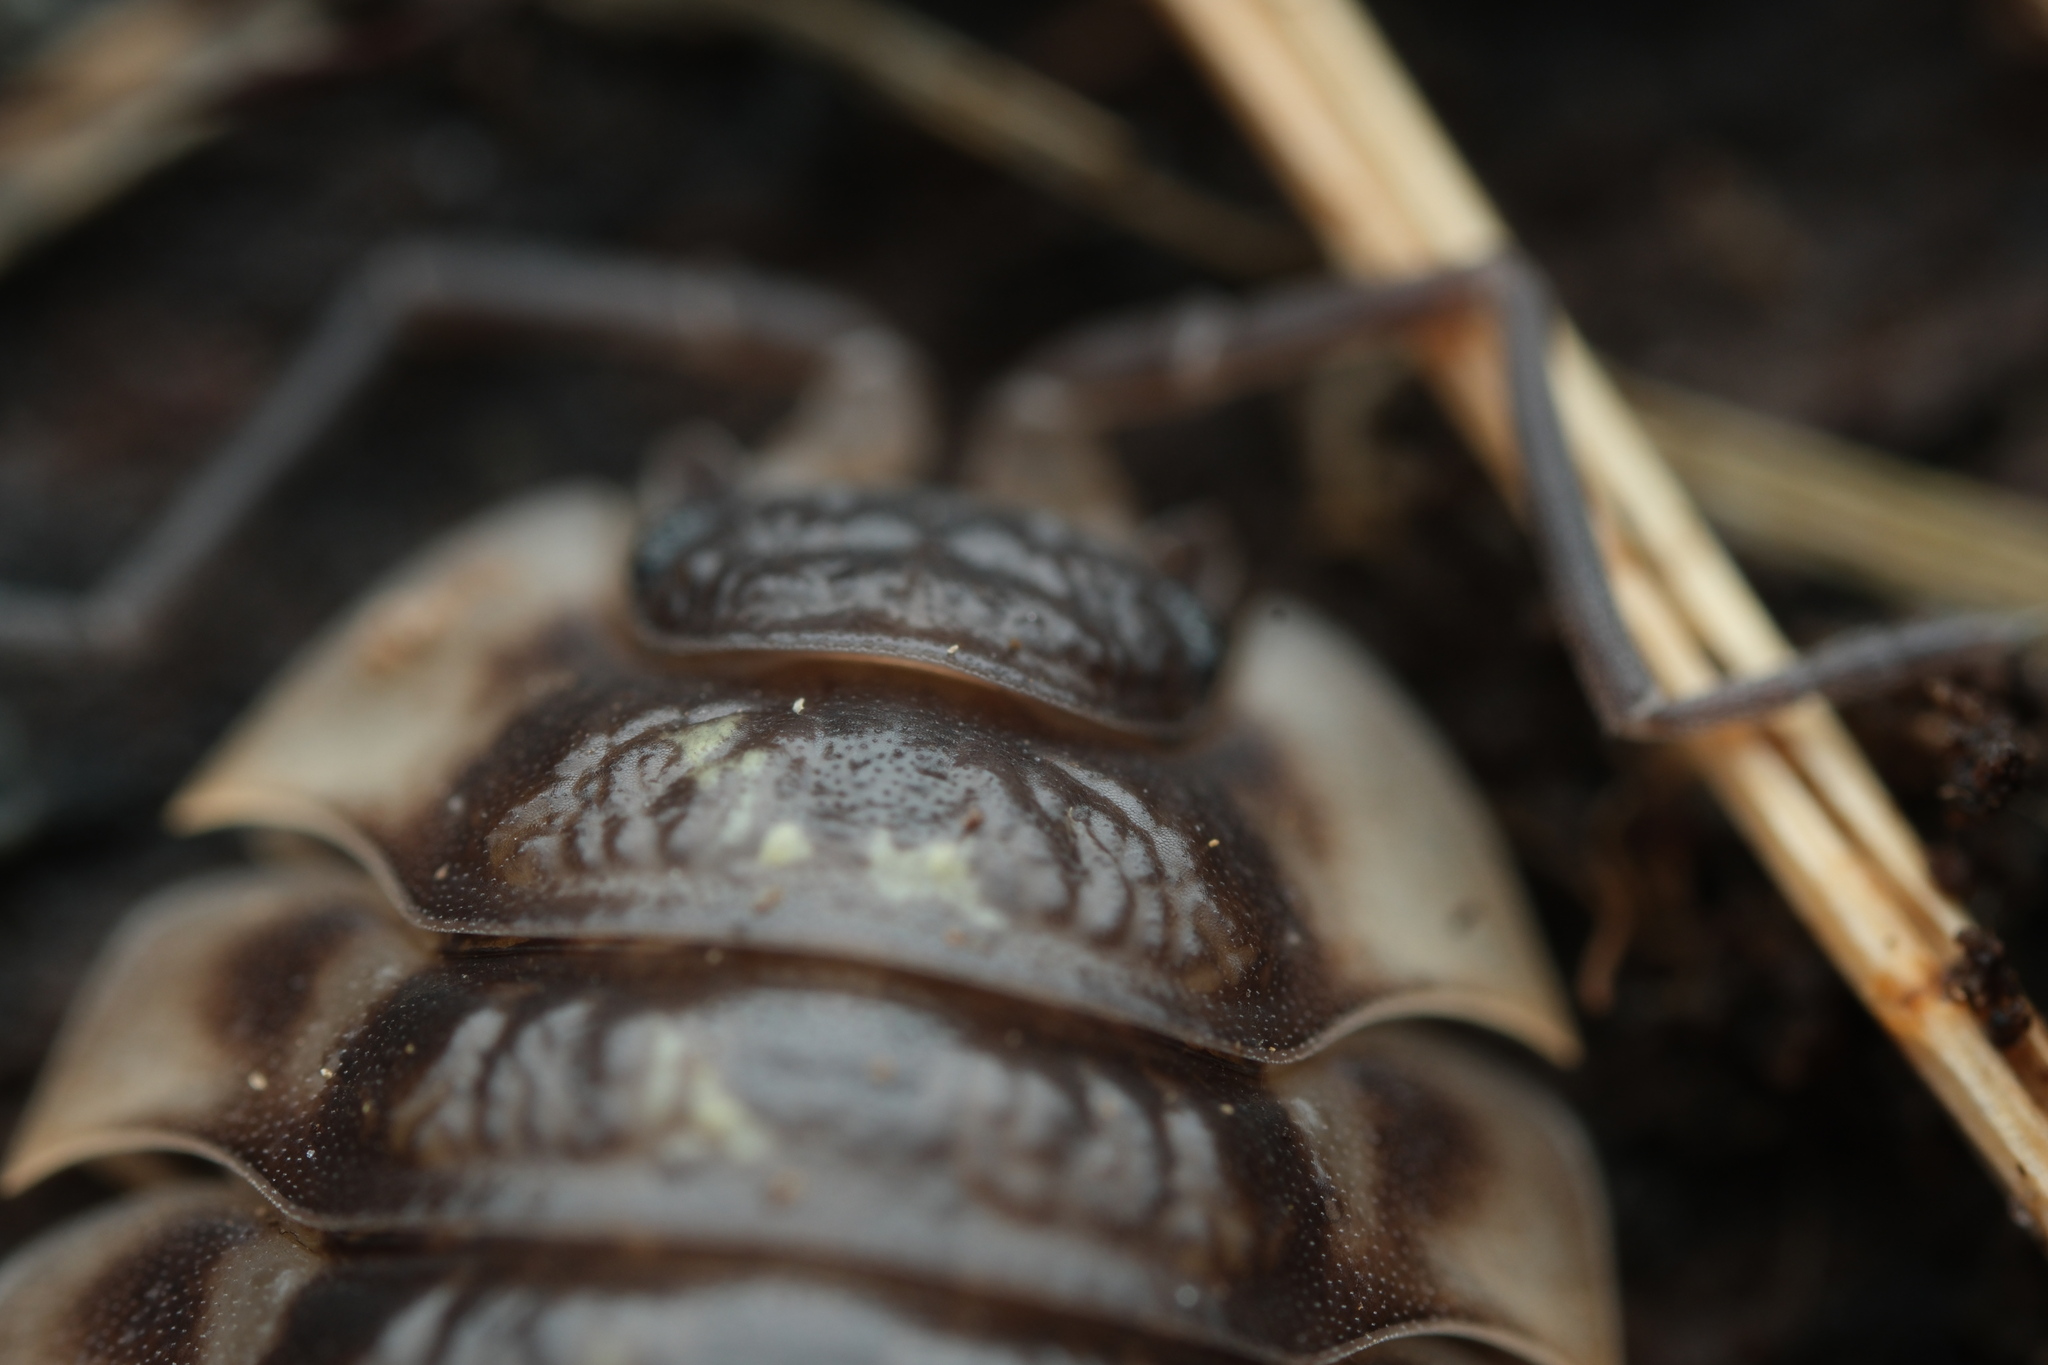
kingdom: Animalia
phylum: Arthropoda
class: Malacostraca
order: Isopoda
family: Oniscidae
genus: Oniscus
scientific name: Oniscus asellus
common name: Common shiny woodlouse
